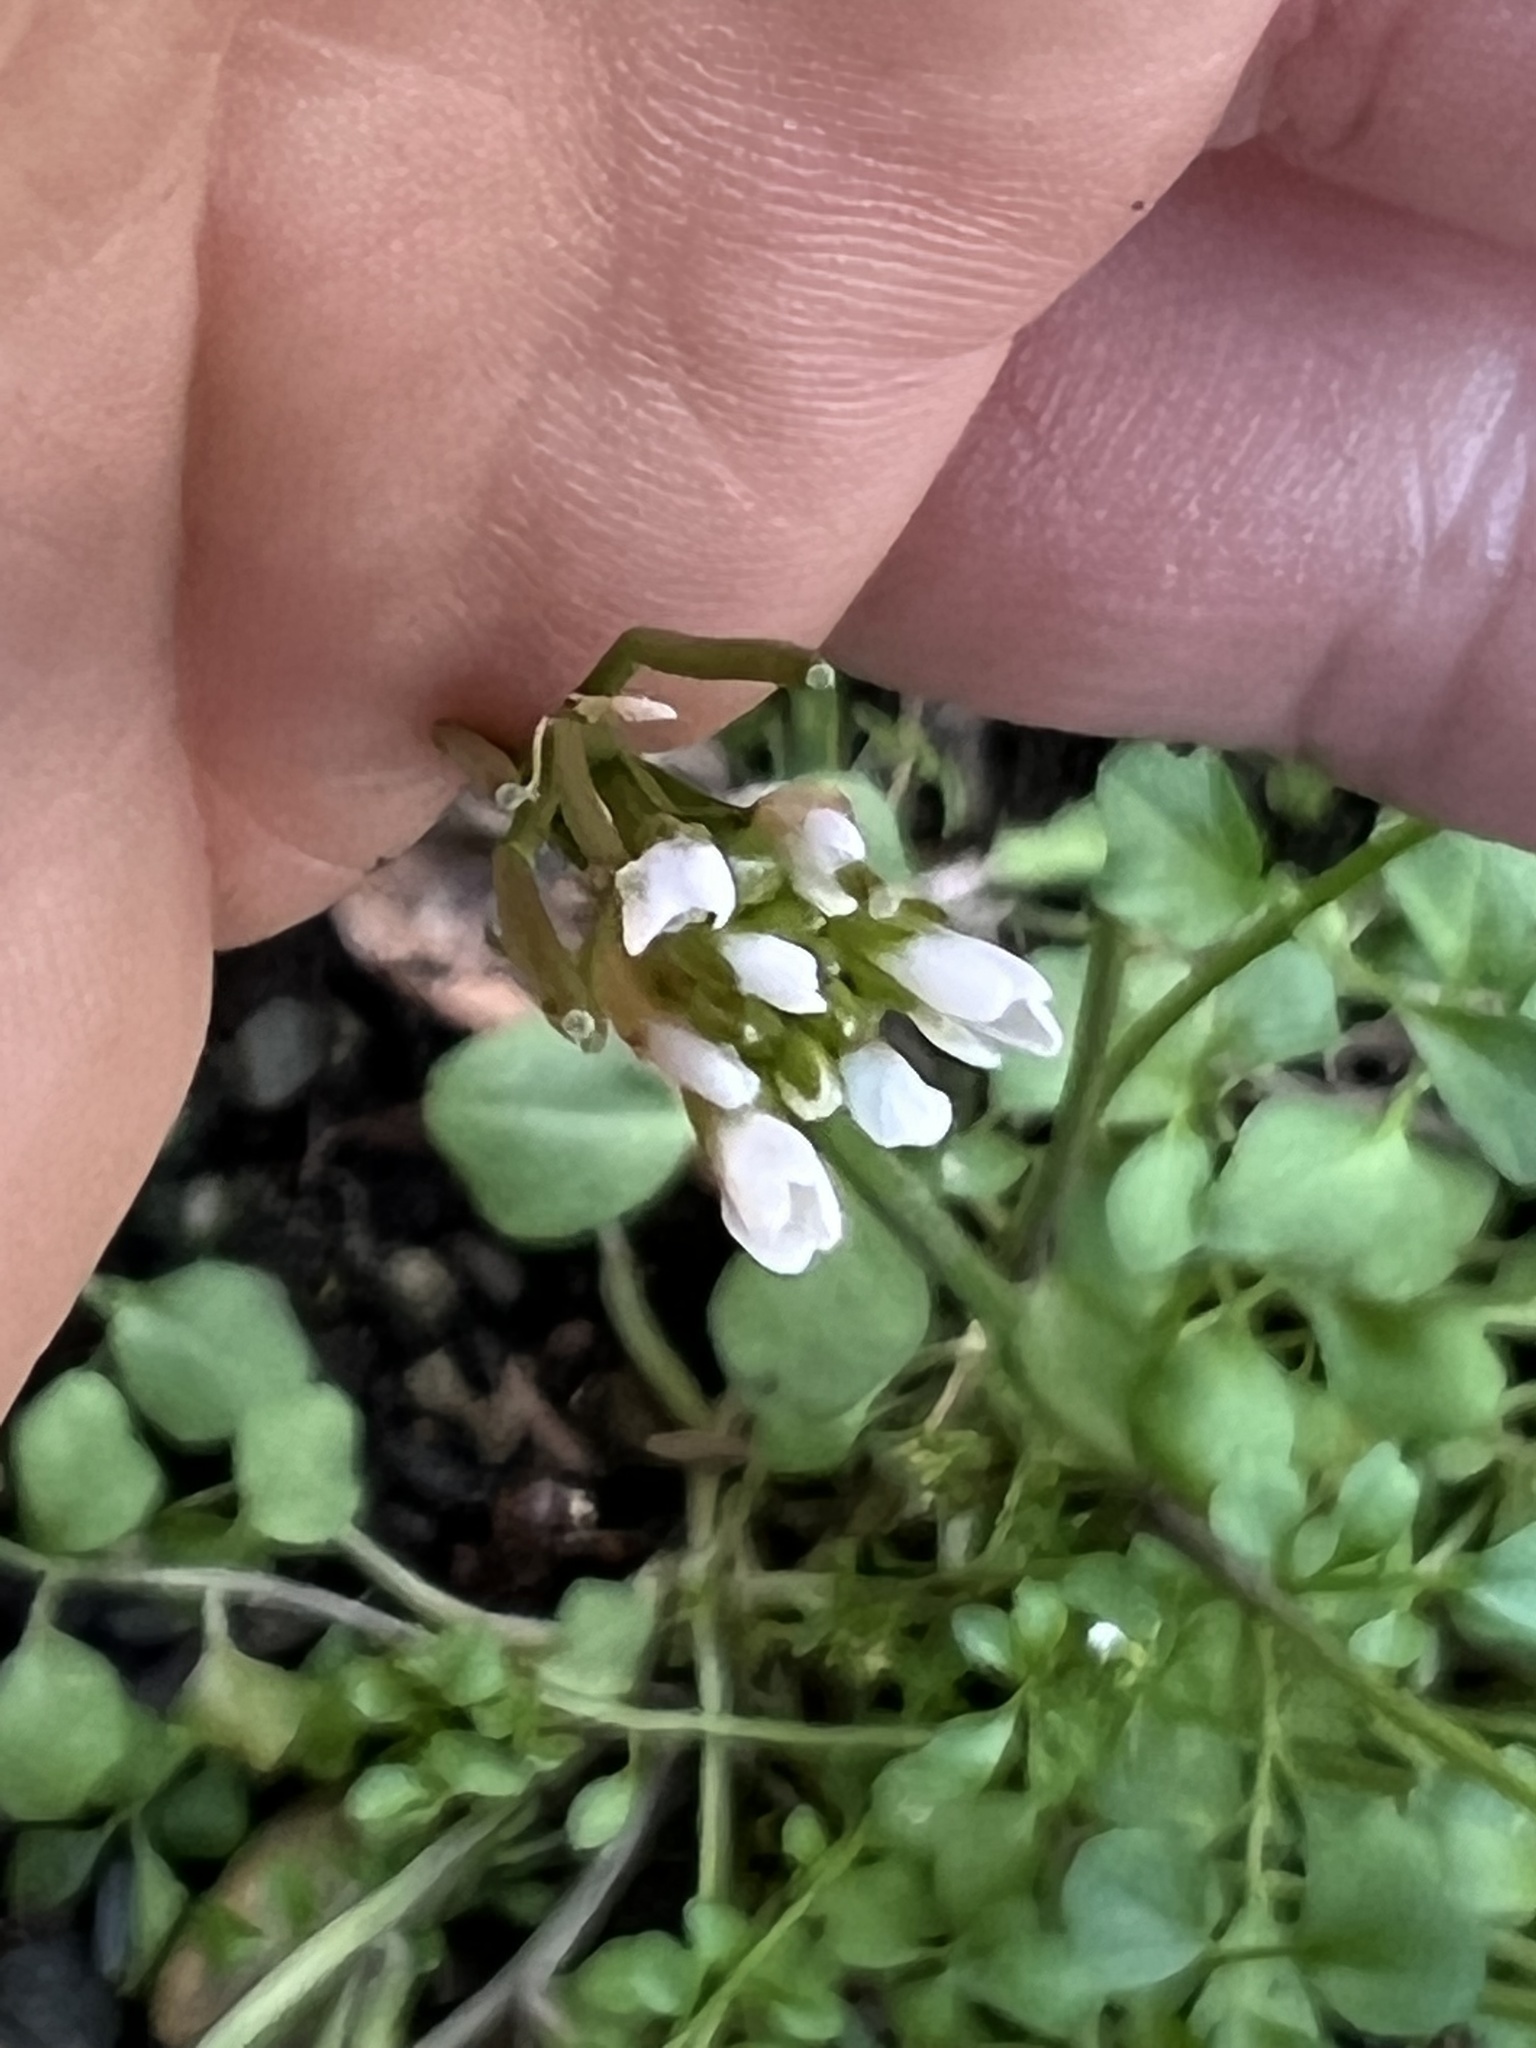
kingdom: Plantae
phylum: Tracheophyta
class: Magnoliopsida
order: Brassicales
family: Brassicaceae
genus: Cardamine
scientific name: Cardamine hirsuta
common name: Hairy bittercress
